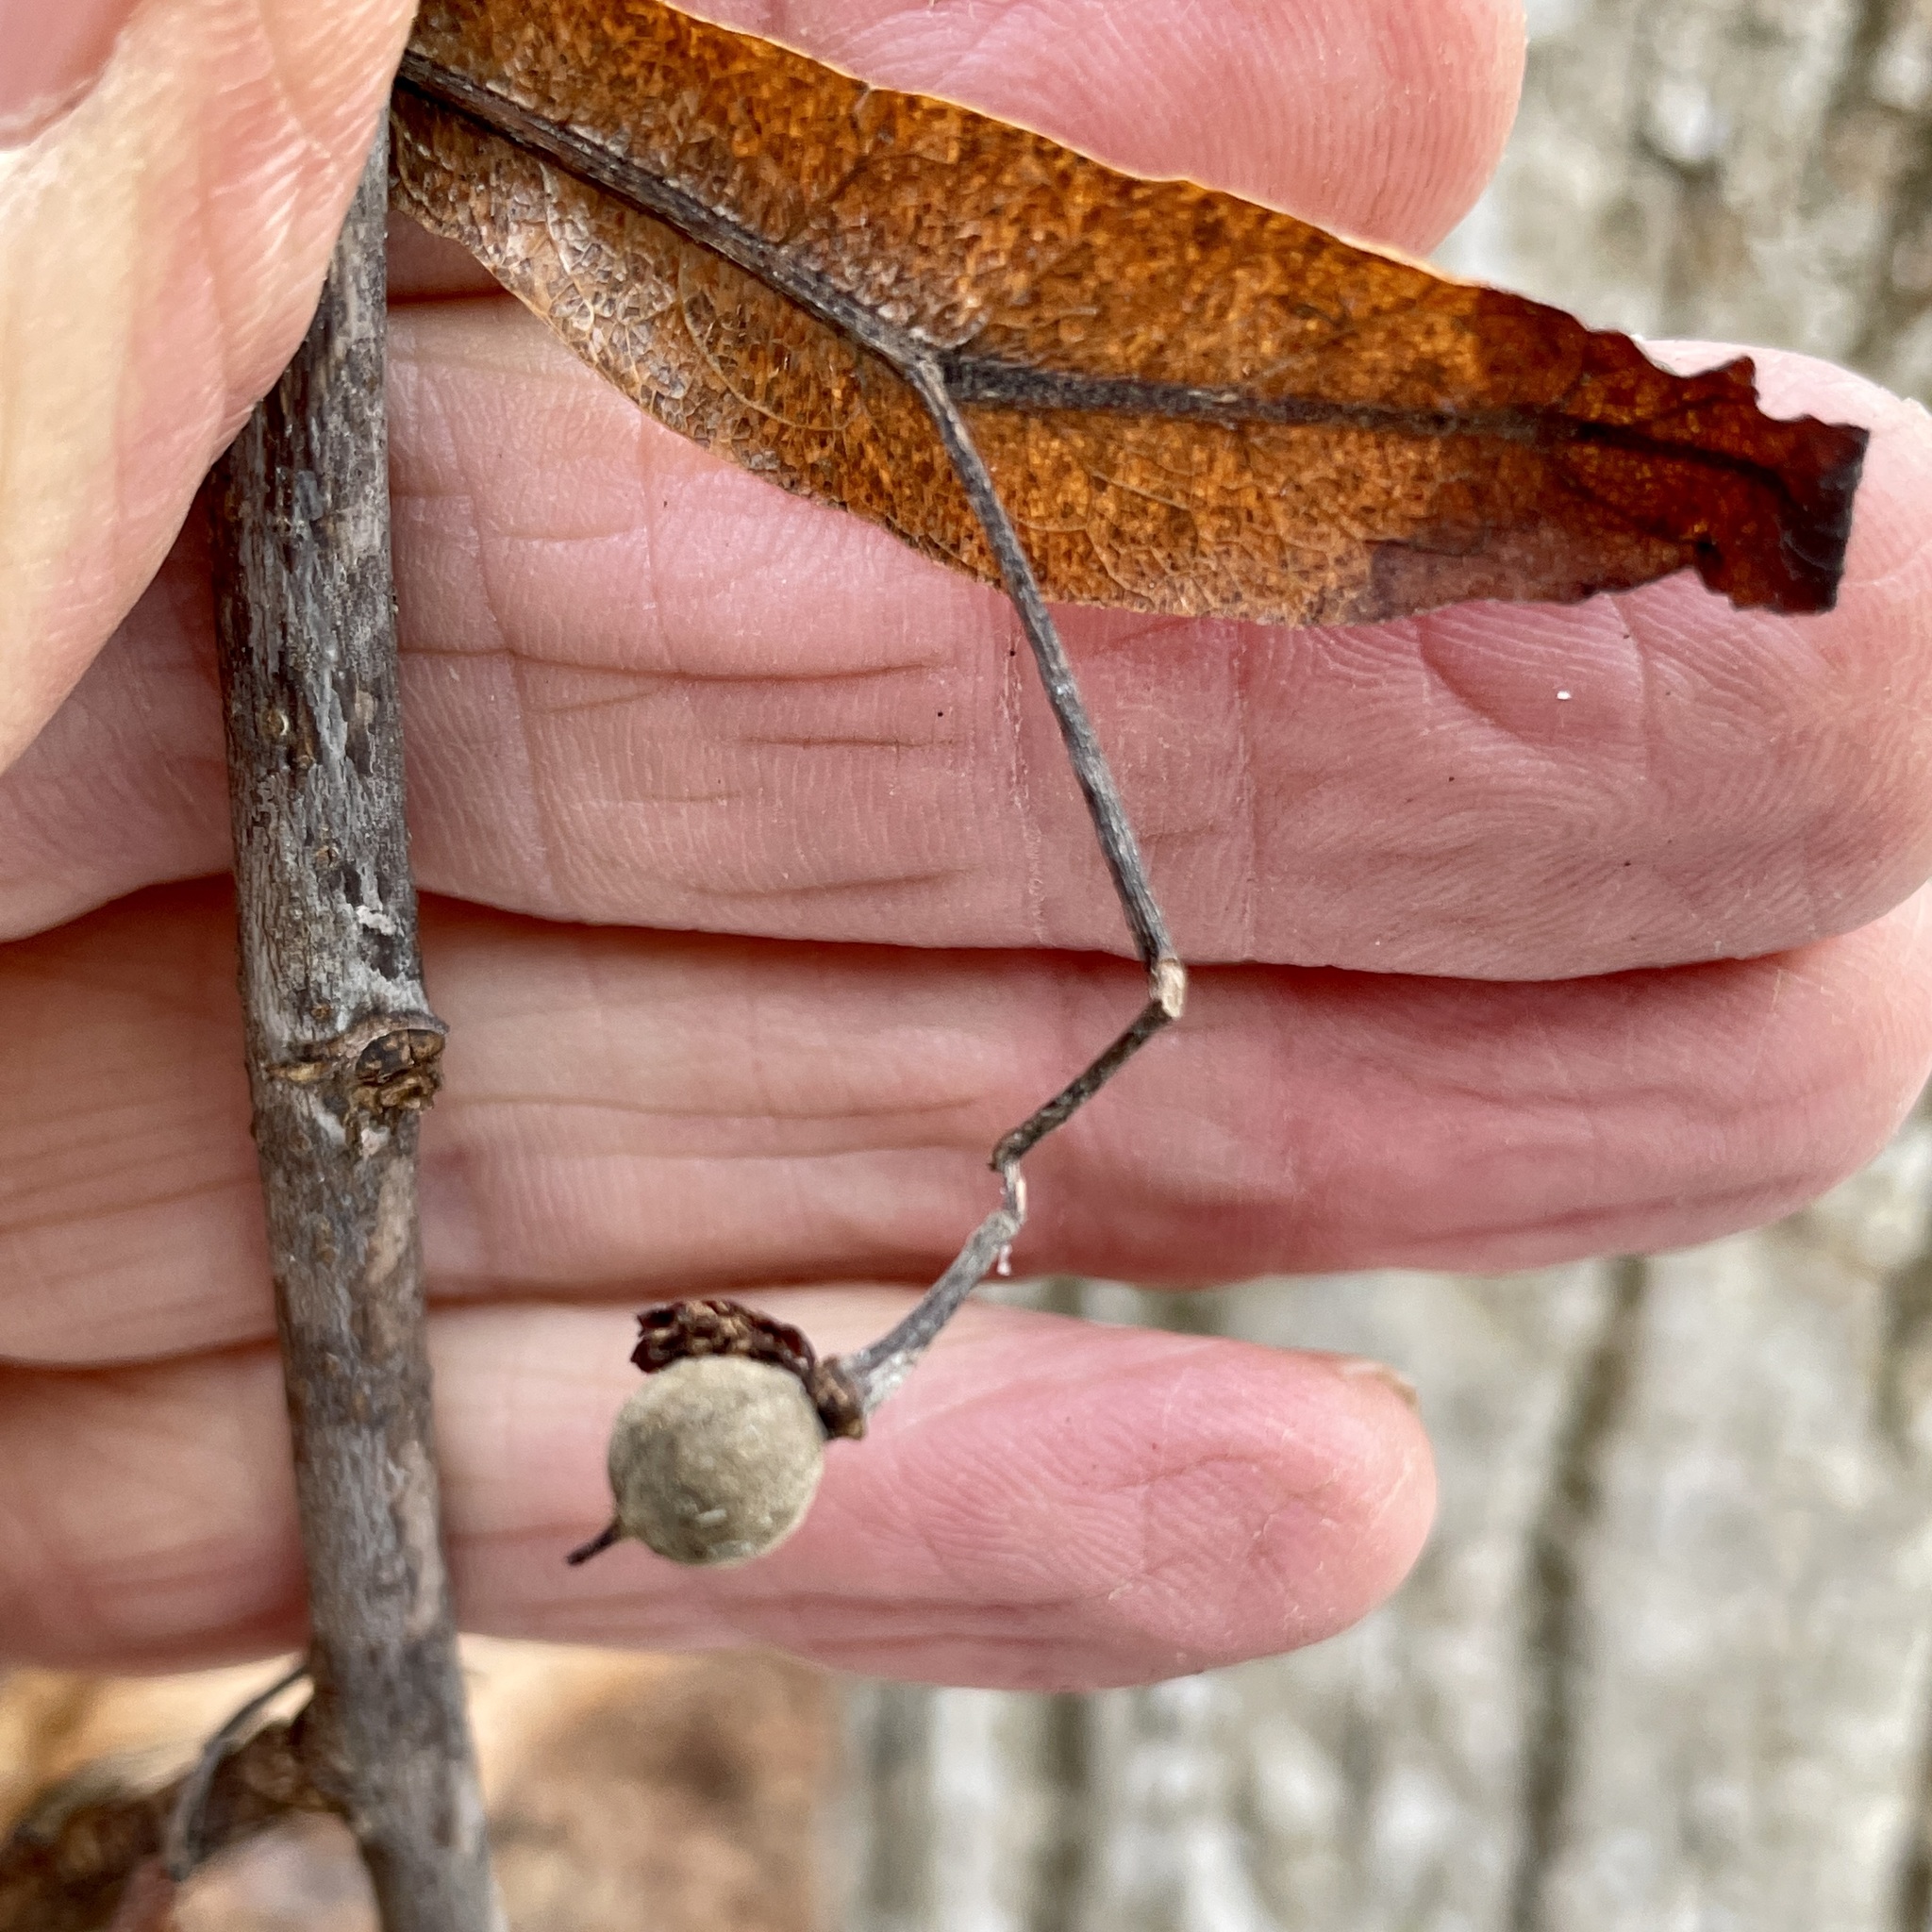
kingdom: Plantae
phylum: Tracheophyta
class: Magnoliopsida
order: Malvales
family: Malvaceae
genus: Tilia
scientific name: Tilia americana
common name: Basswood
